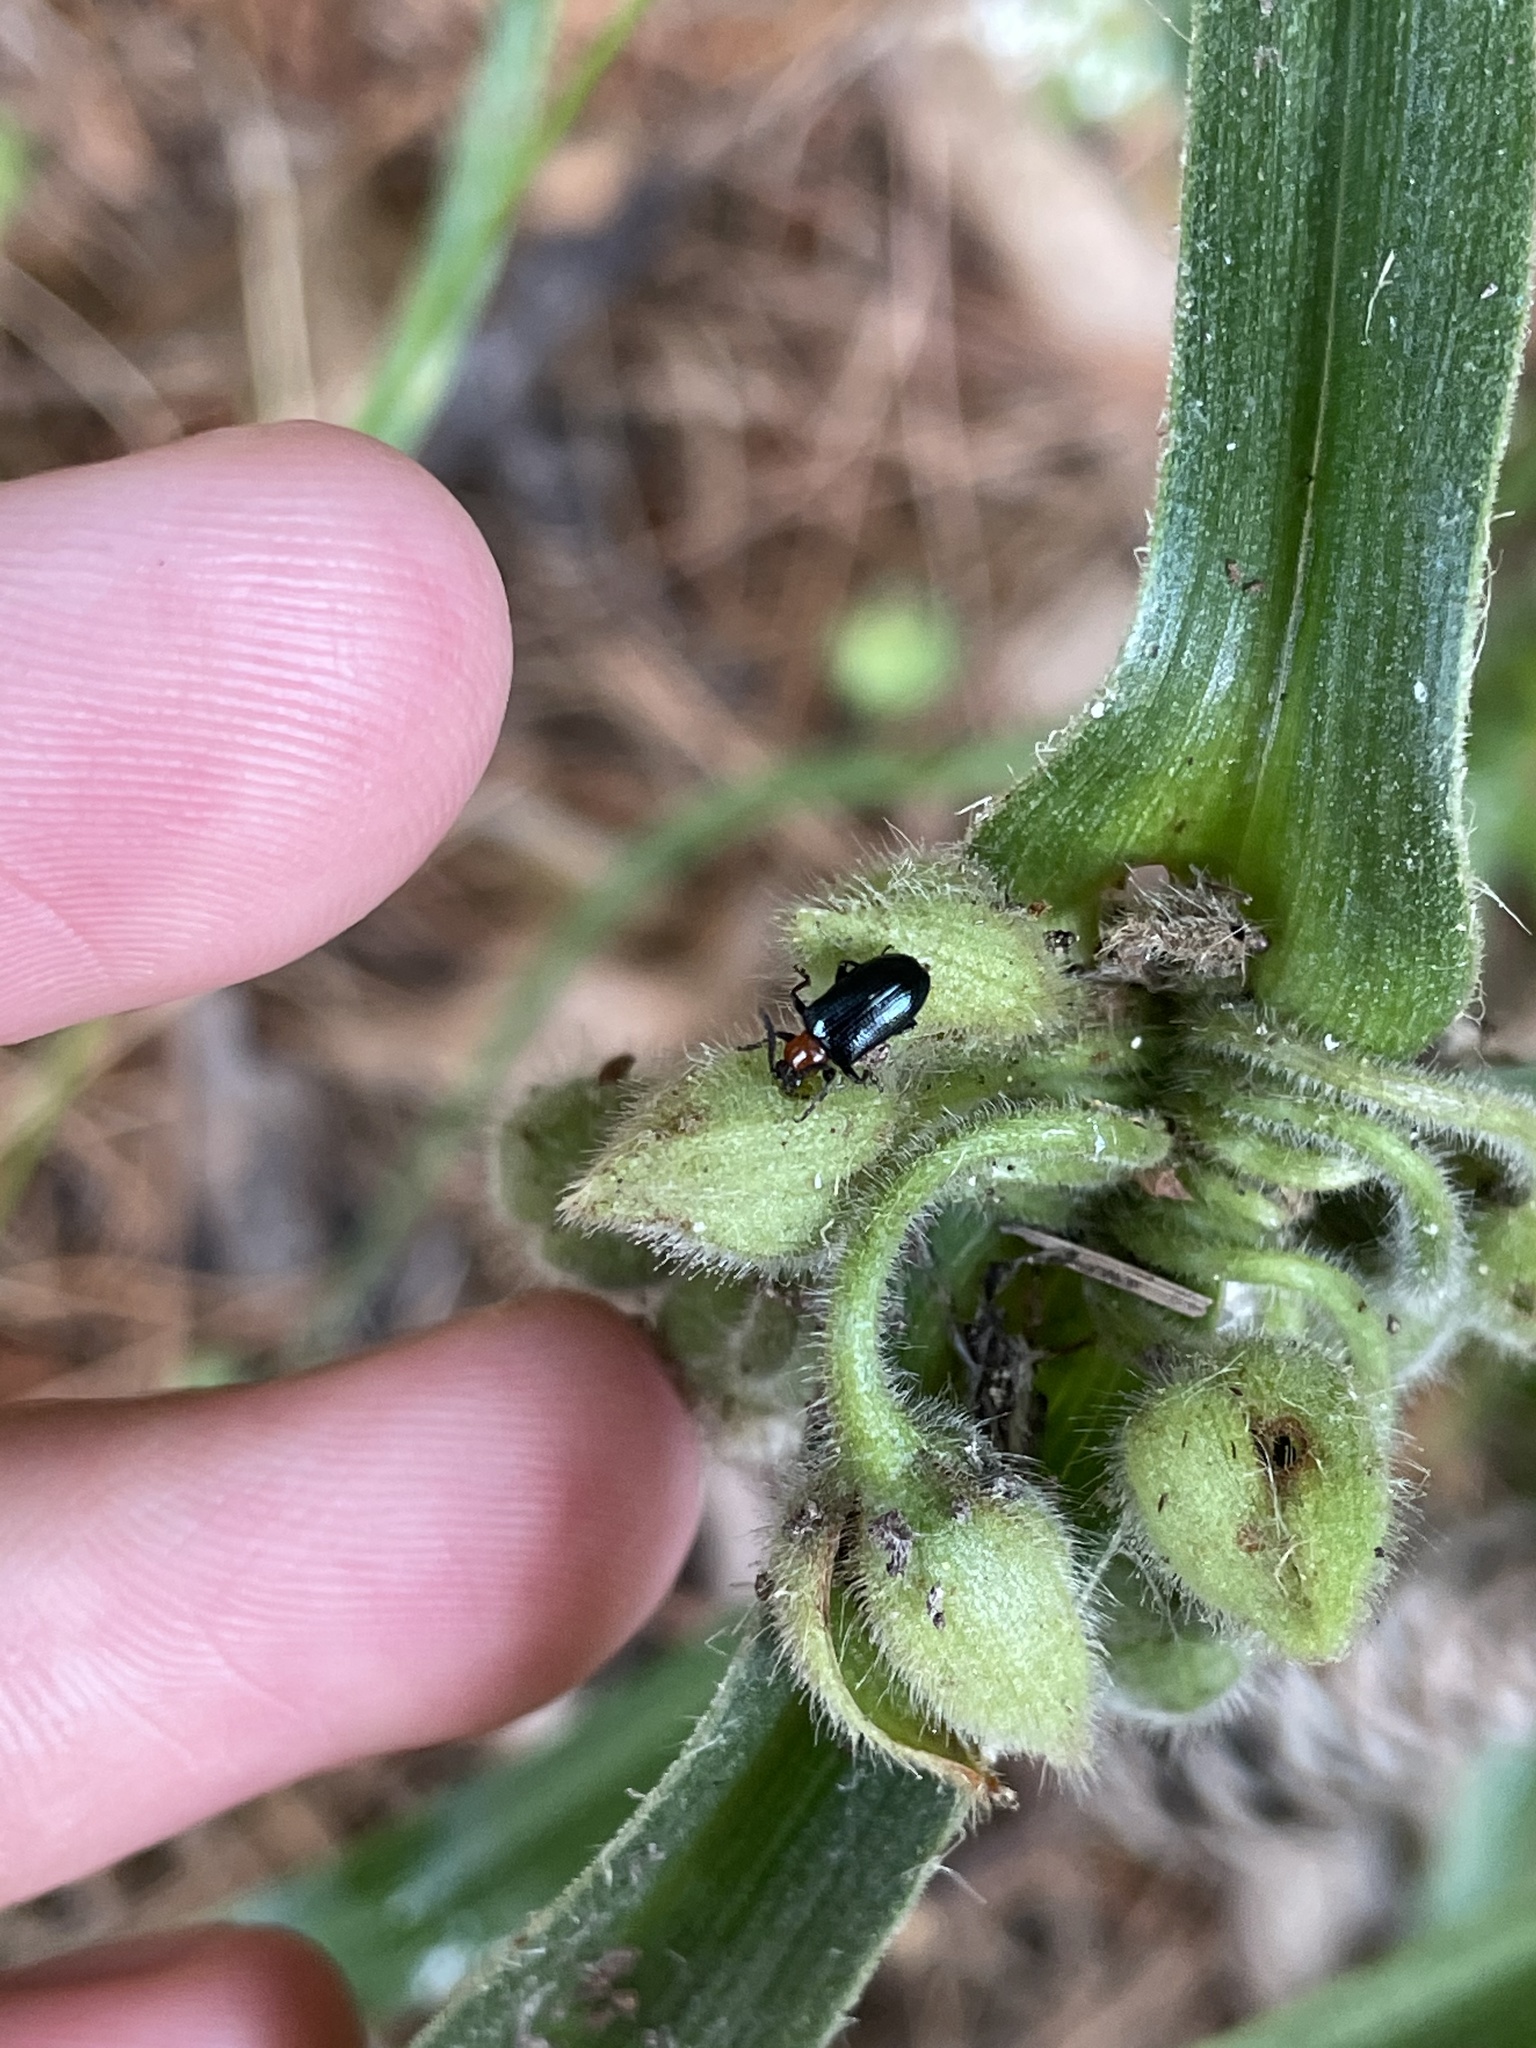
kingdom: Animalia
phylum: Arthropoda
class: Insecta
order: Coleoptera
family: Chrysomelidae
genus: Oulema
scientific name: Oulema melanopus
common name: Cereal leaf beetle
